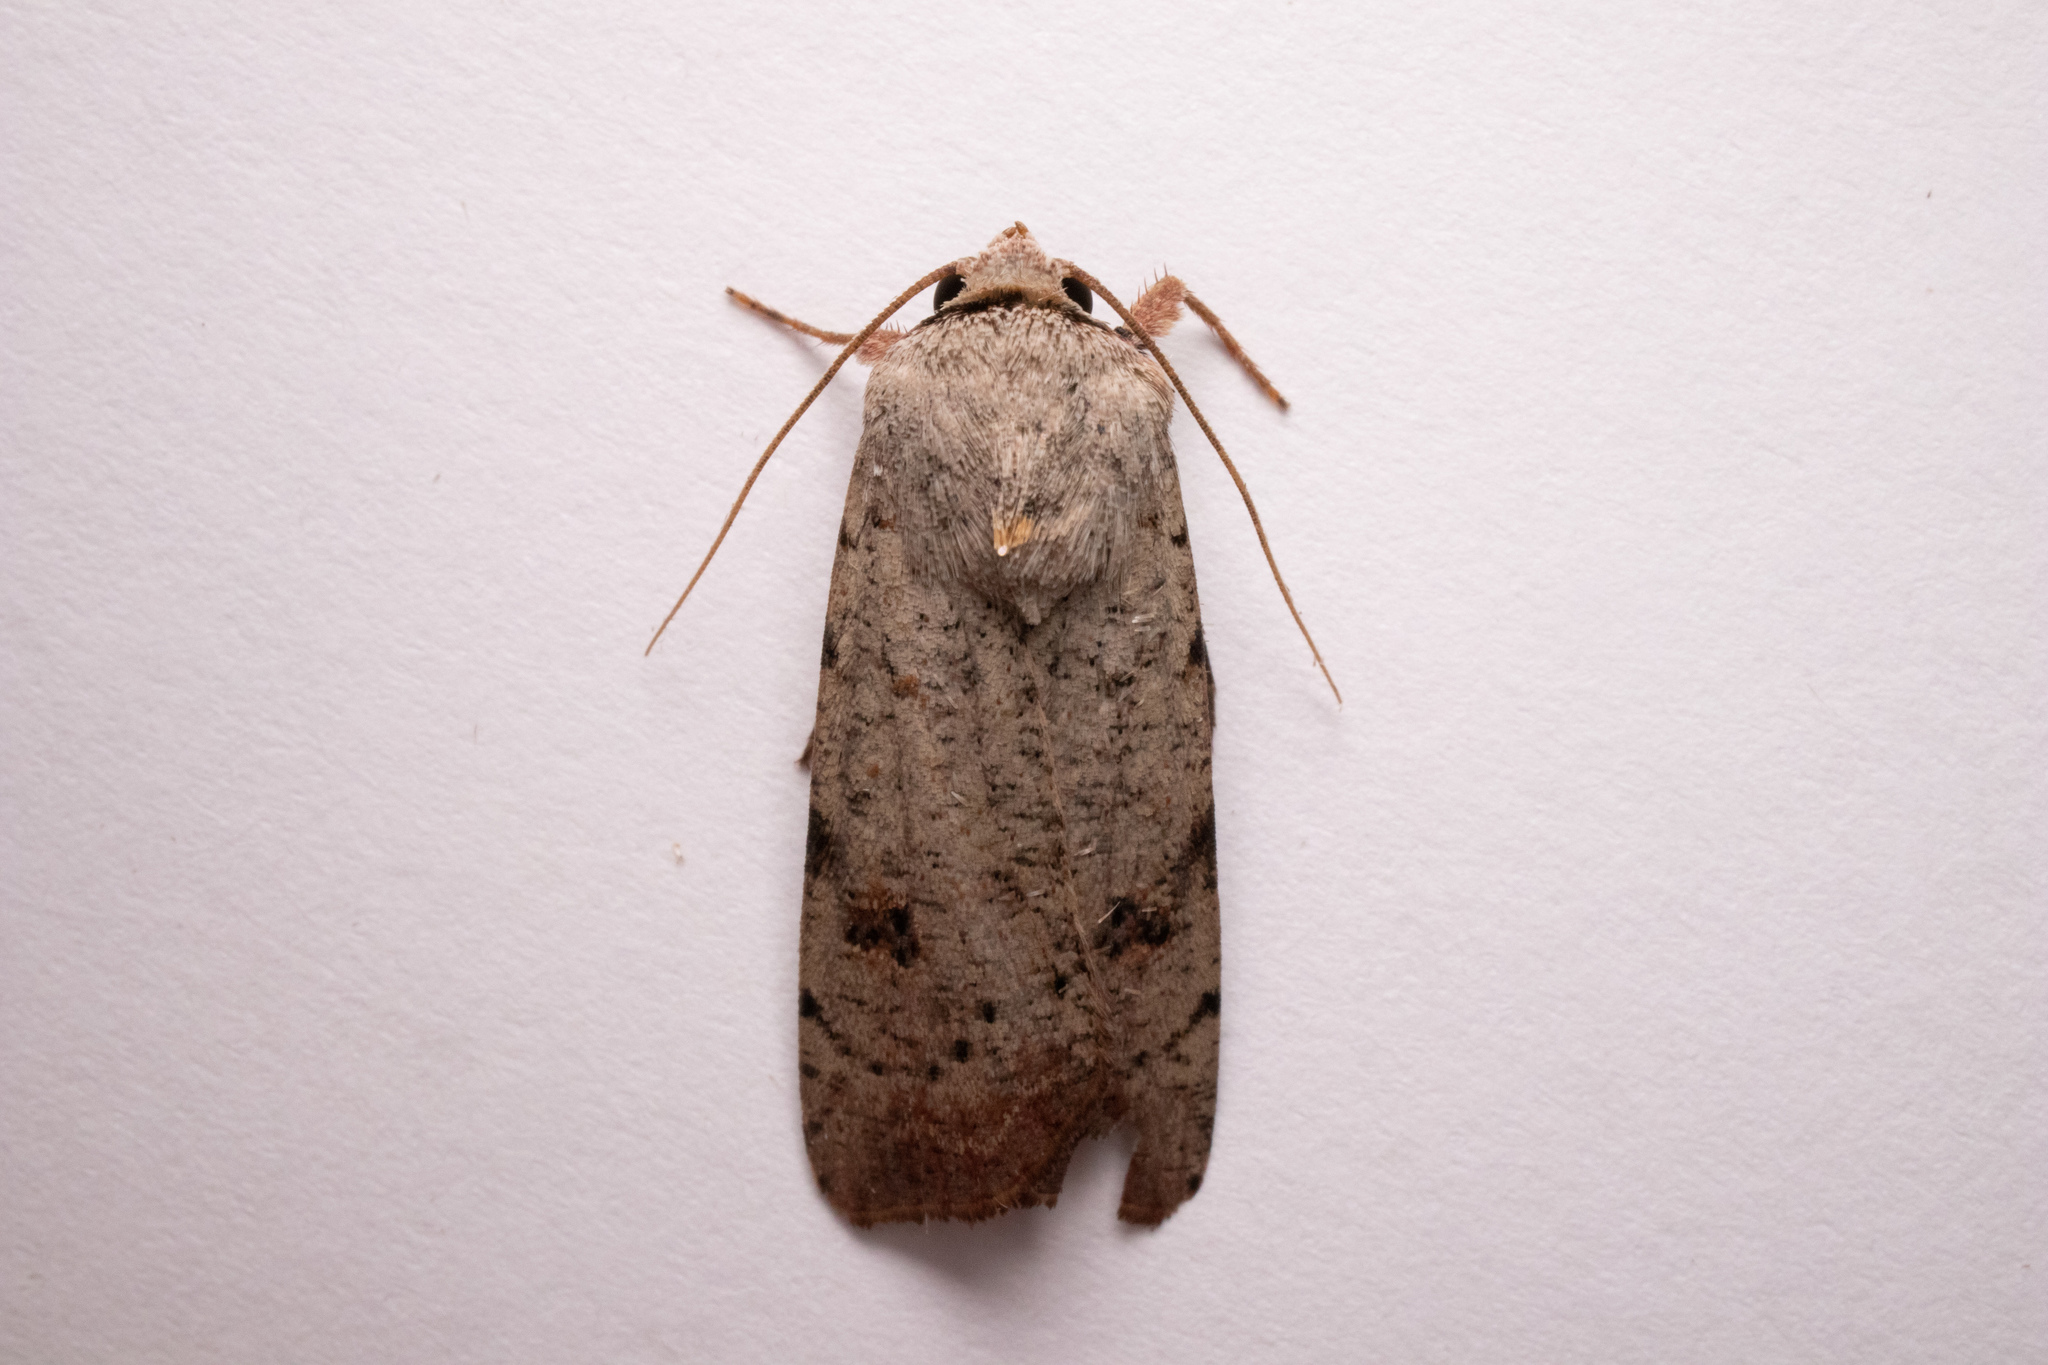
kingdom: Animalia
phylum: Arthropoda
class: Insecta
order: Lepidoptera
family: Noctuidae
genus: Anicla
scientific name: Anicla infecta
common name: Green cutworm
